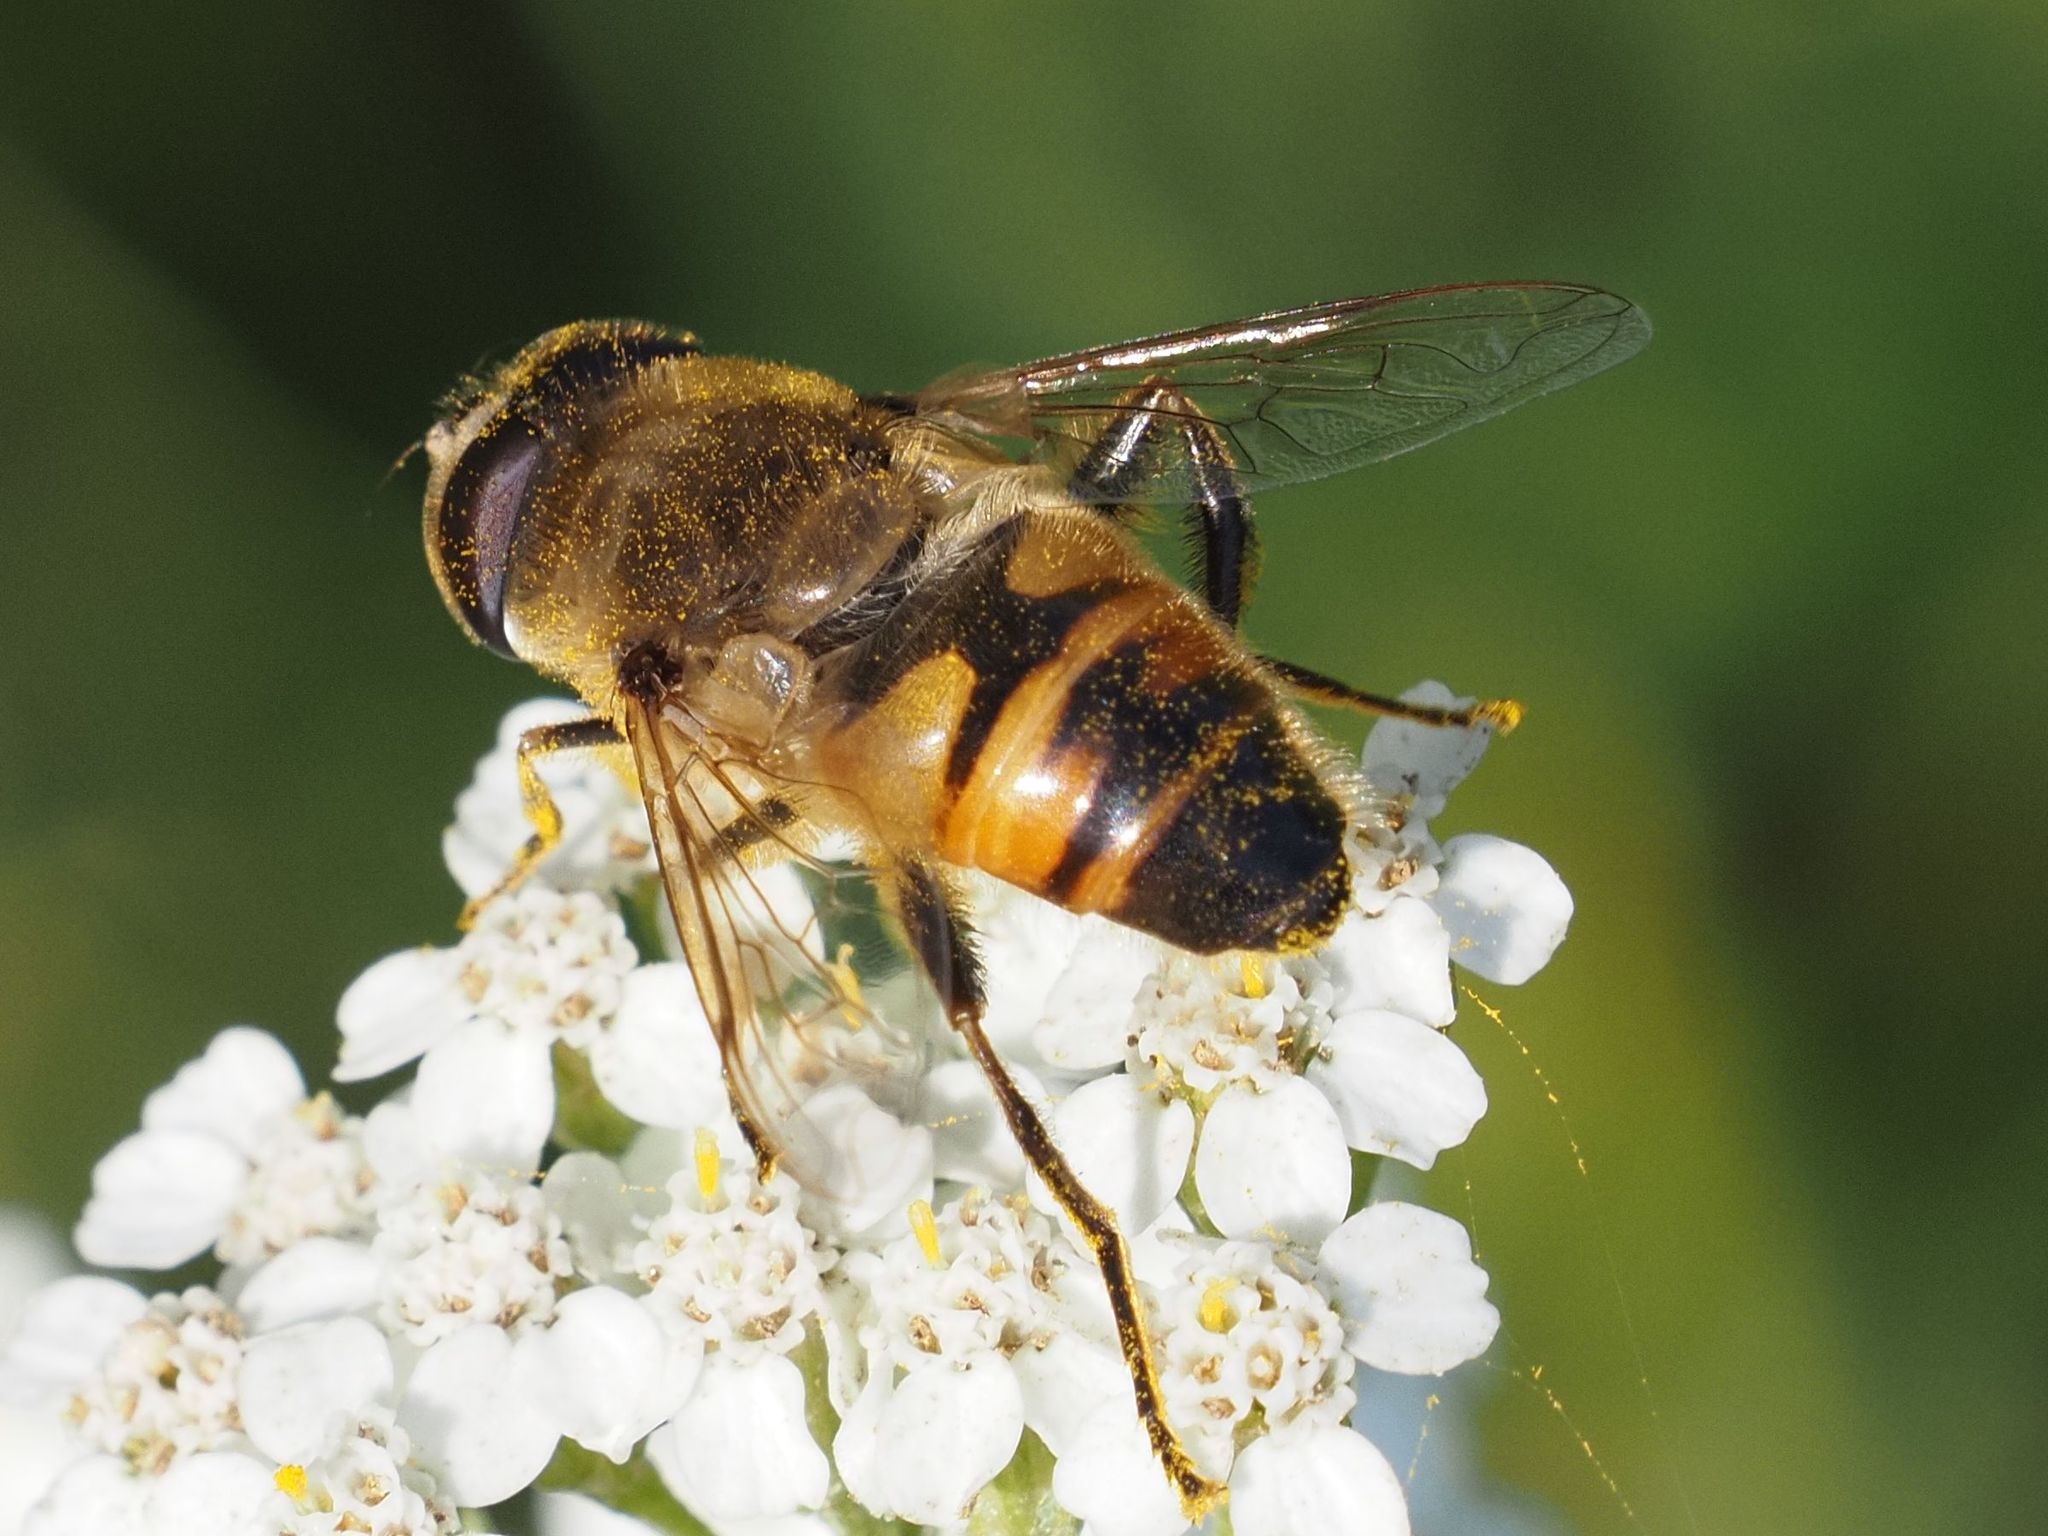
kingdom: Animalia
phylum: Arthropoda
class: Insecta
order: Diptera
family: Syrphidae
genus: Eristalis
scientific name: Eristalis tenax
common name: Drone fly
